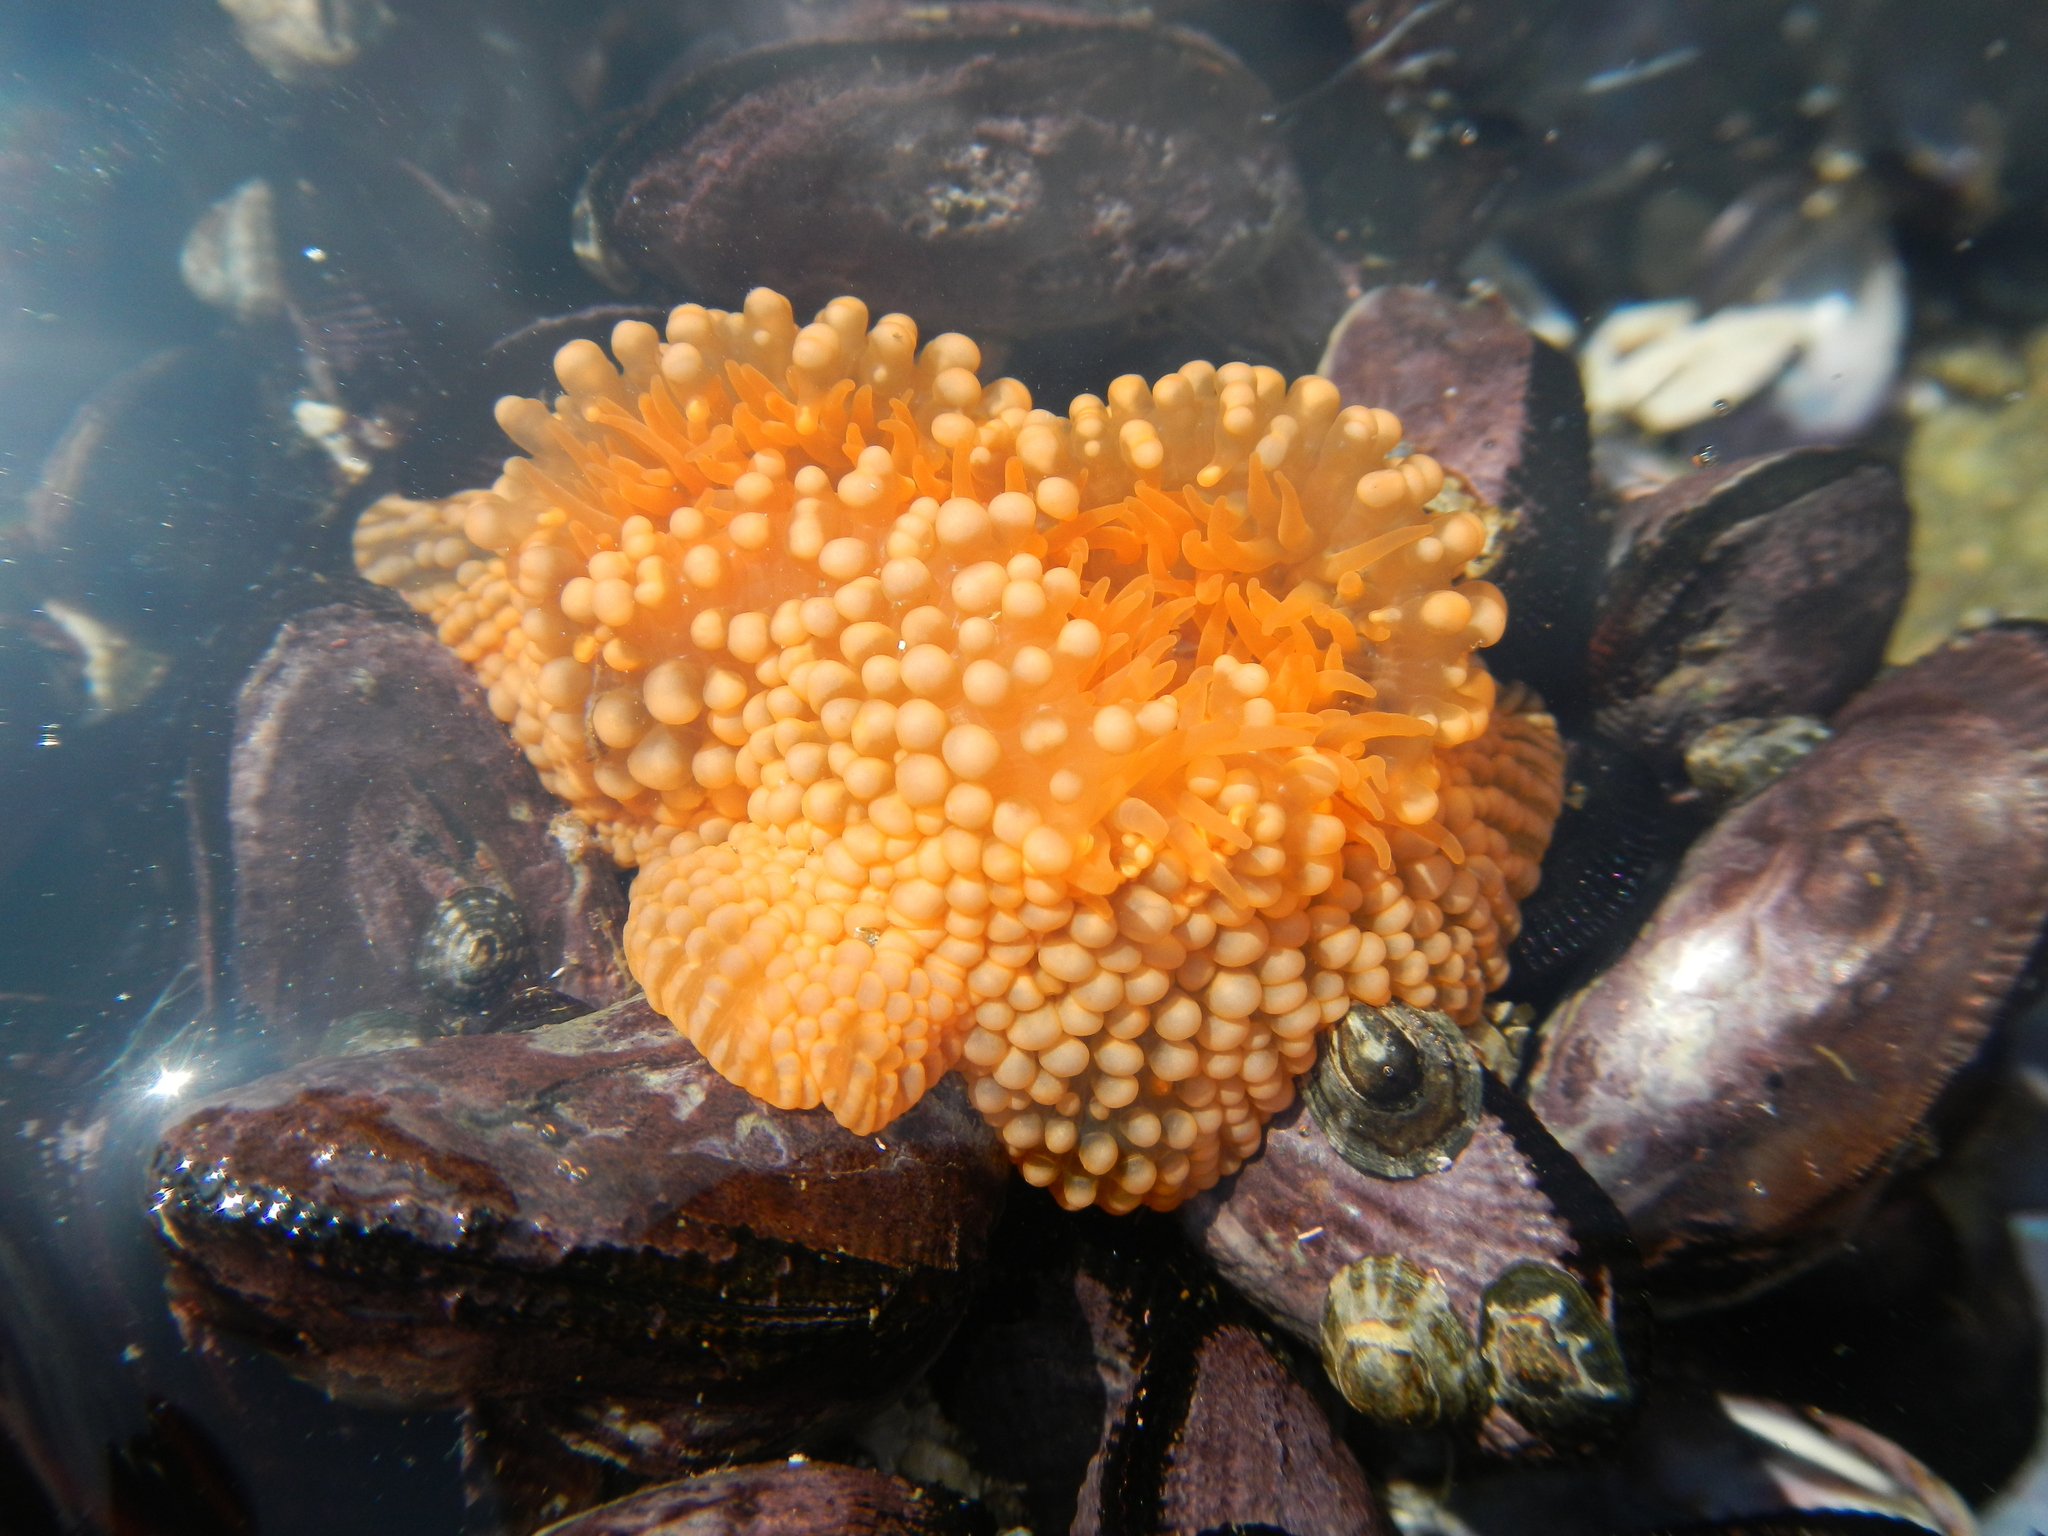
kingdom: Animalia
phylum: Cnidaria
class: Anthozoa
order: Actiniaria
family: Actiniidae
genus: Phymanthea
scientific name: Phymanthea pluvia
